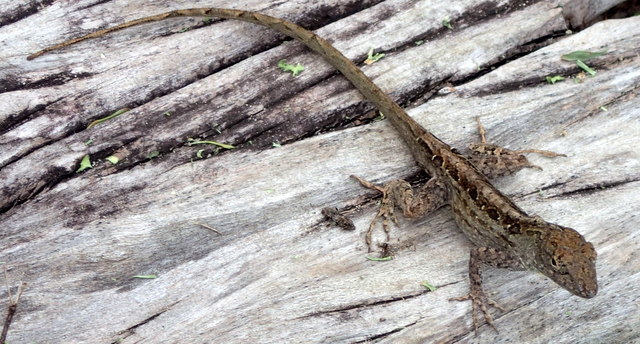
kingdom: Animalia
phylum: Chordata
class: Squamata
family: Dactyloidae
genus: Anolis
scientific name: Anolis sagrei
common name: Brown anole
